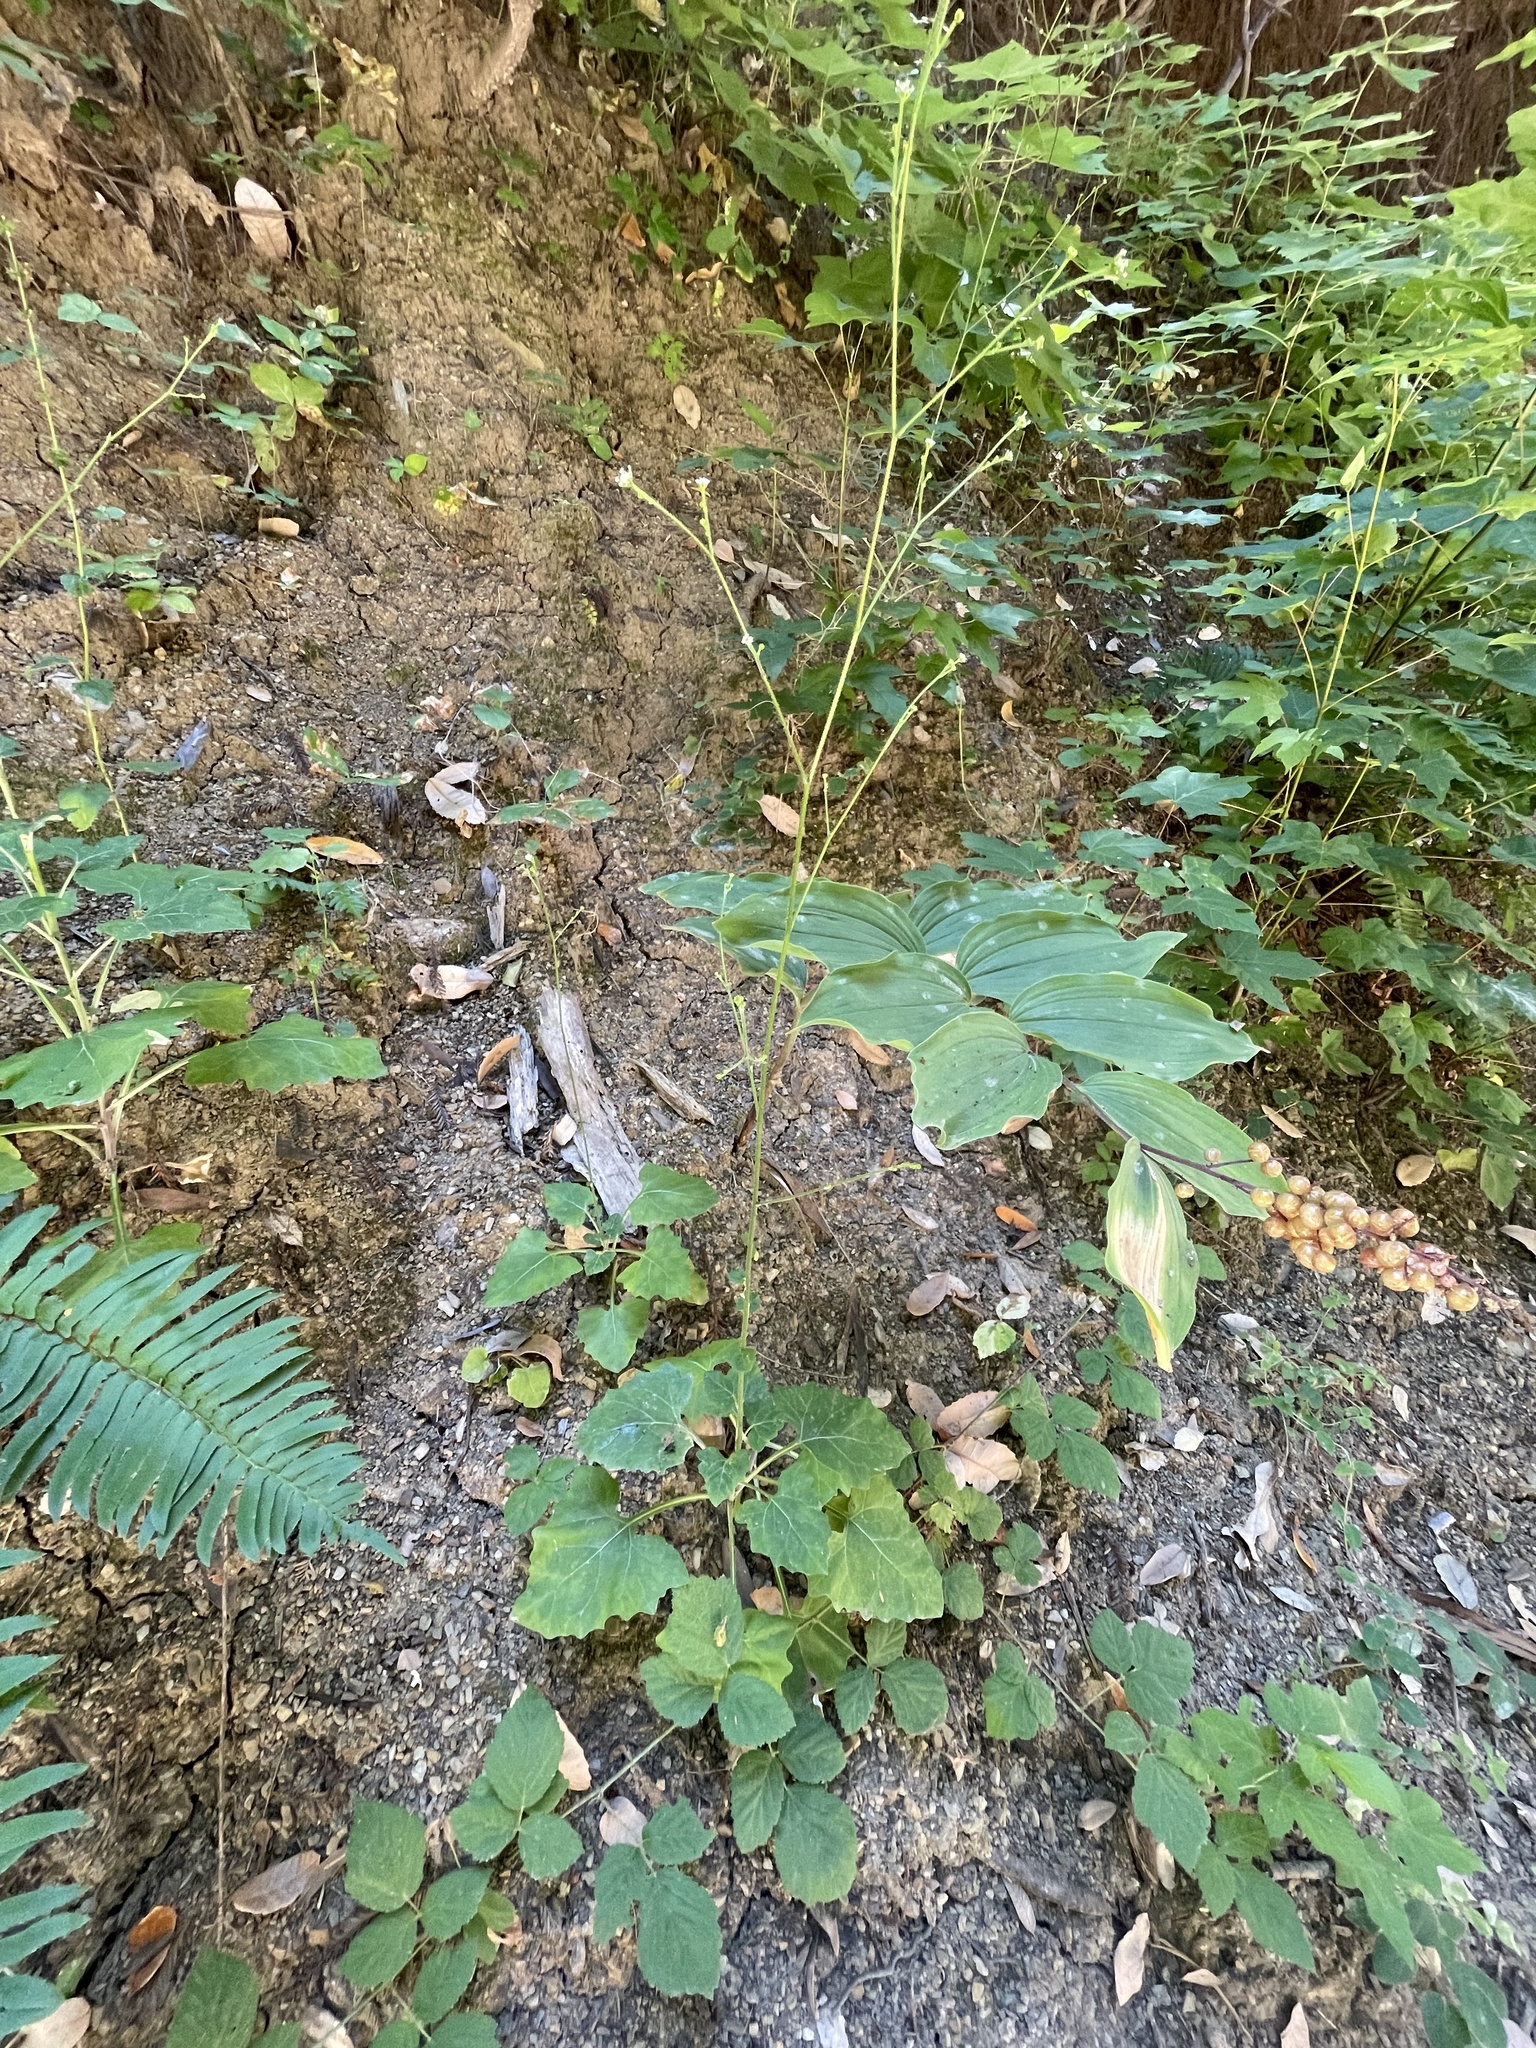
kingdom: Plantae
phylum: Tracheophyta
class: Magnoliopsida
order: Asterales
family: Asteraceae
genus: Adenocaulon
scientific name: Adenocaulon bicolor
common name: Trailplant
